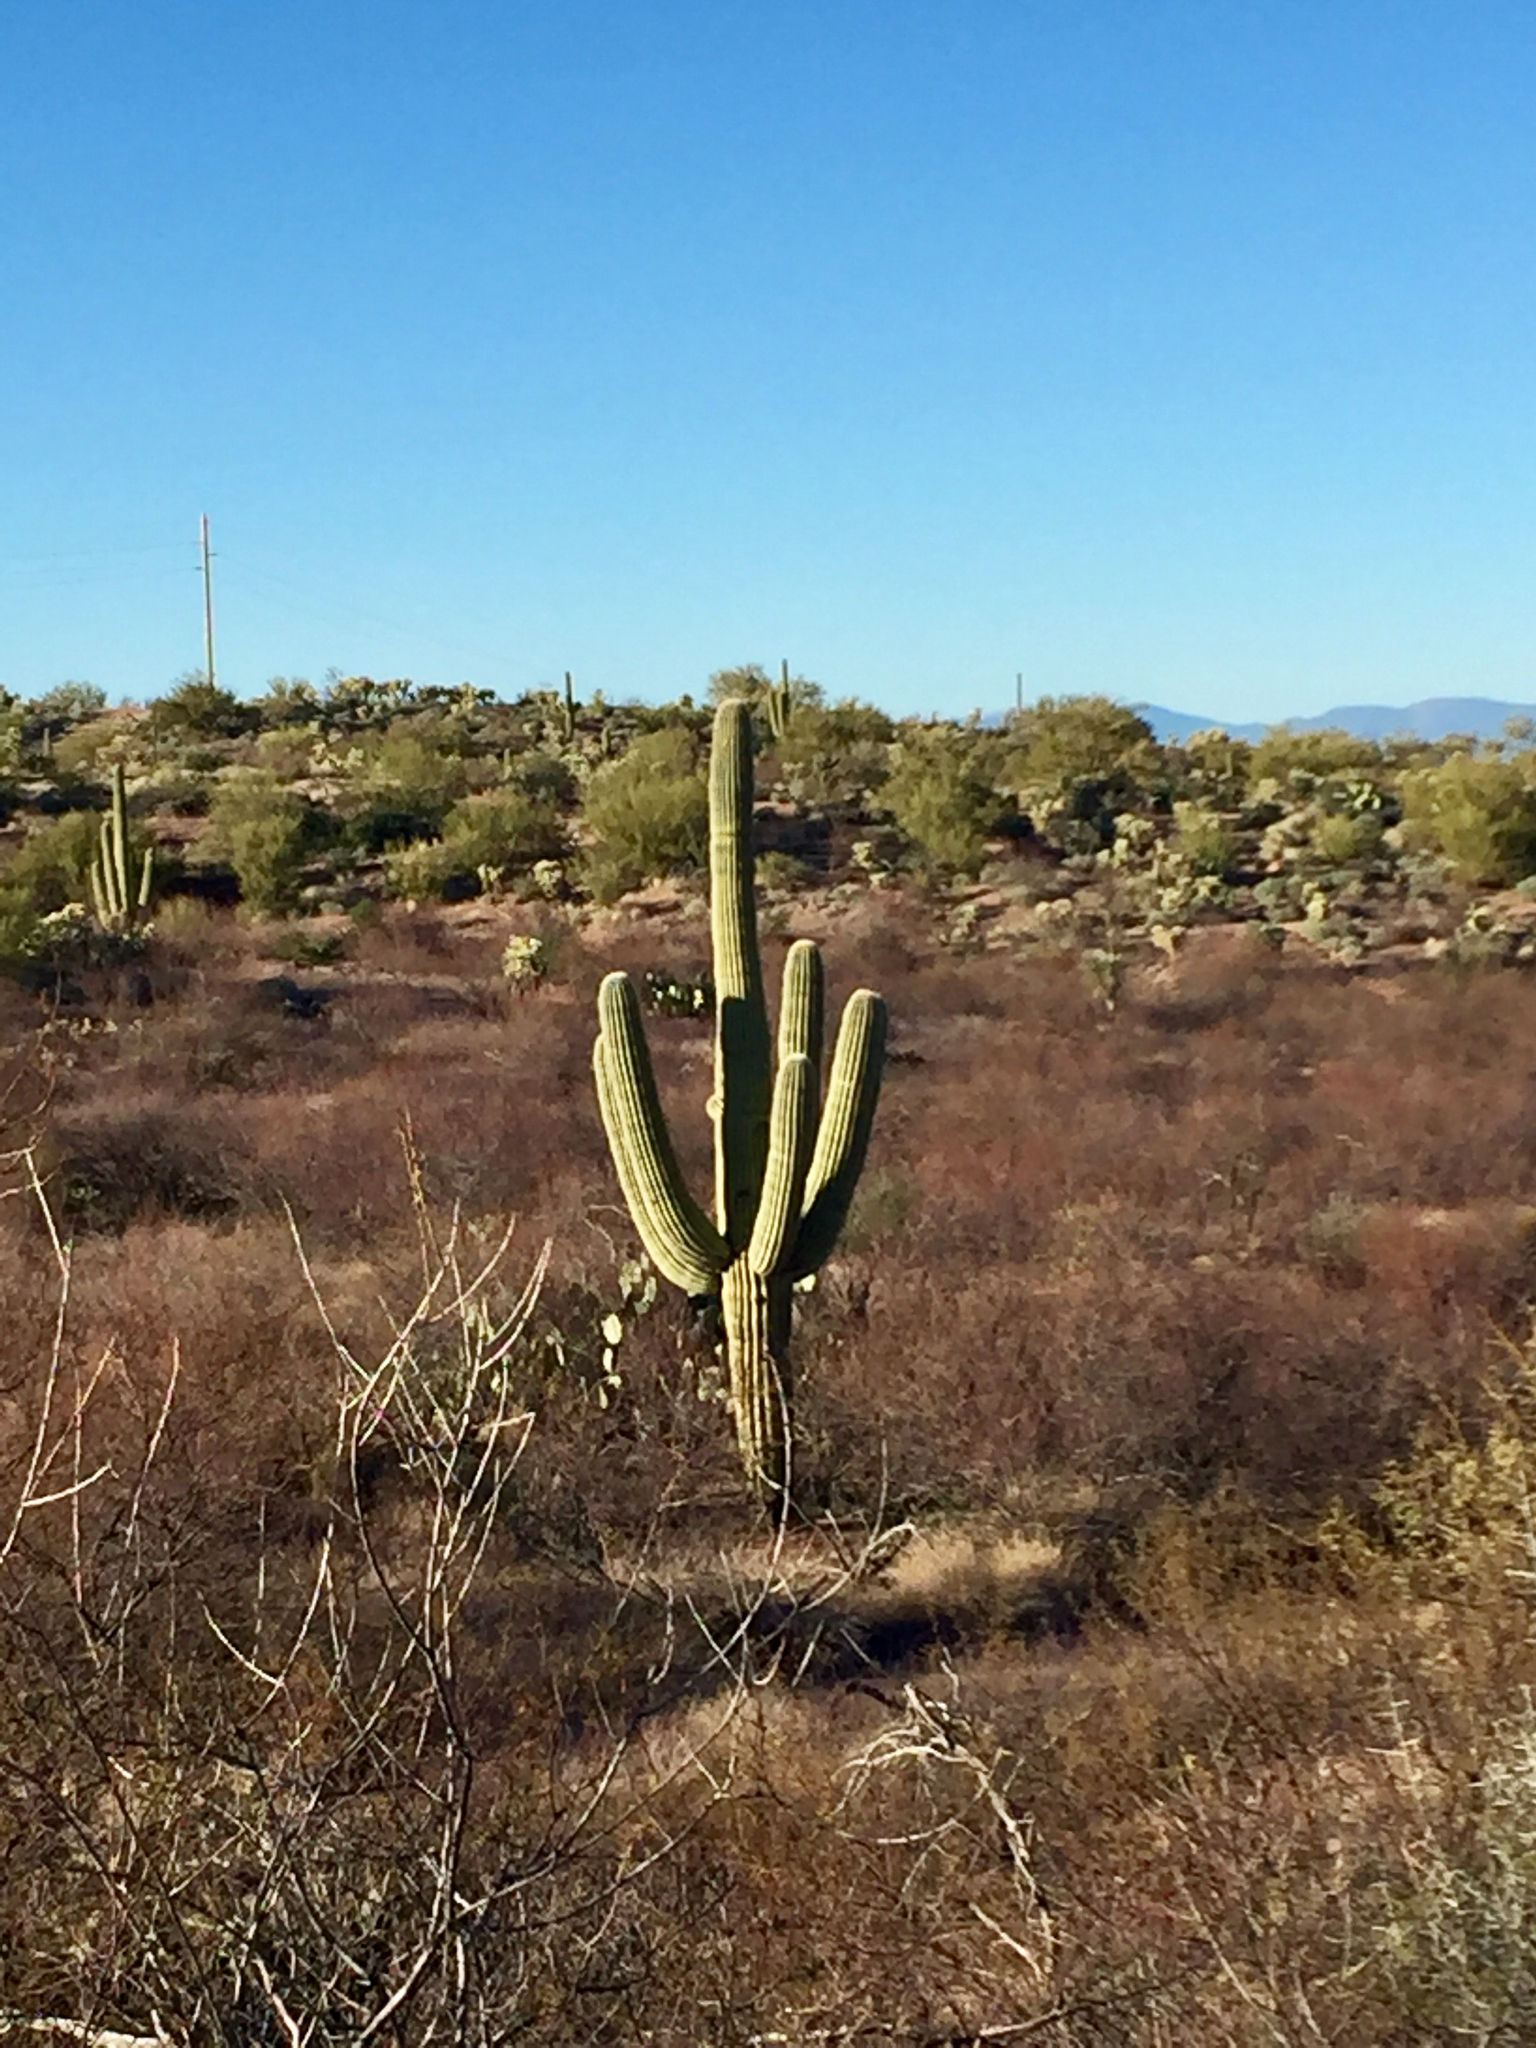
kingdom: Plantae
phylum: Tracheophyta
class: Magnoliopsida
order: Caryophyllales
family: Cactaceae
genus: Carnegiea
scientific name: Carnegiea gigantea
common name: Saguaro
